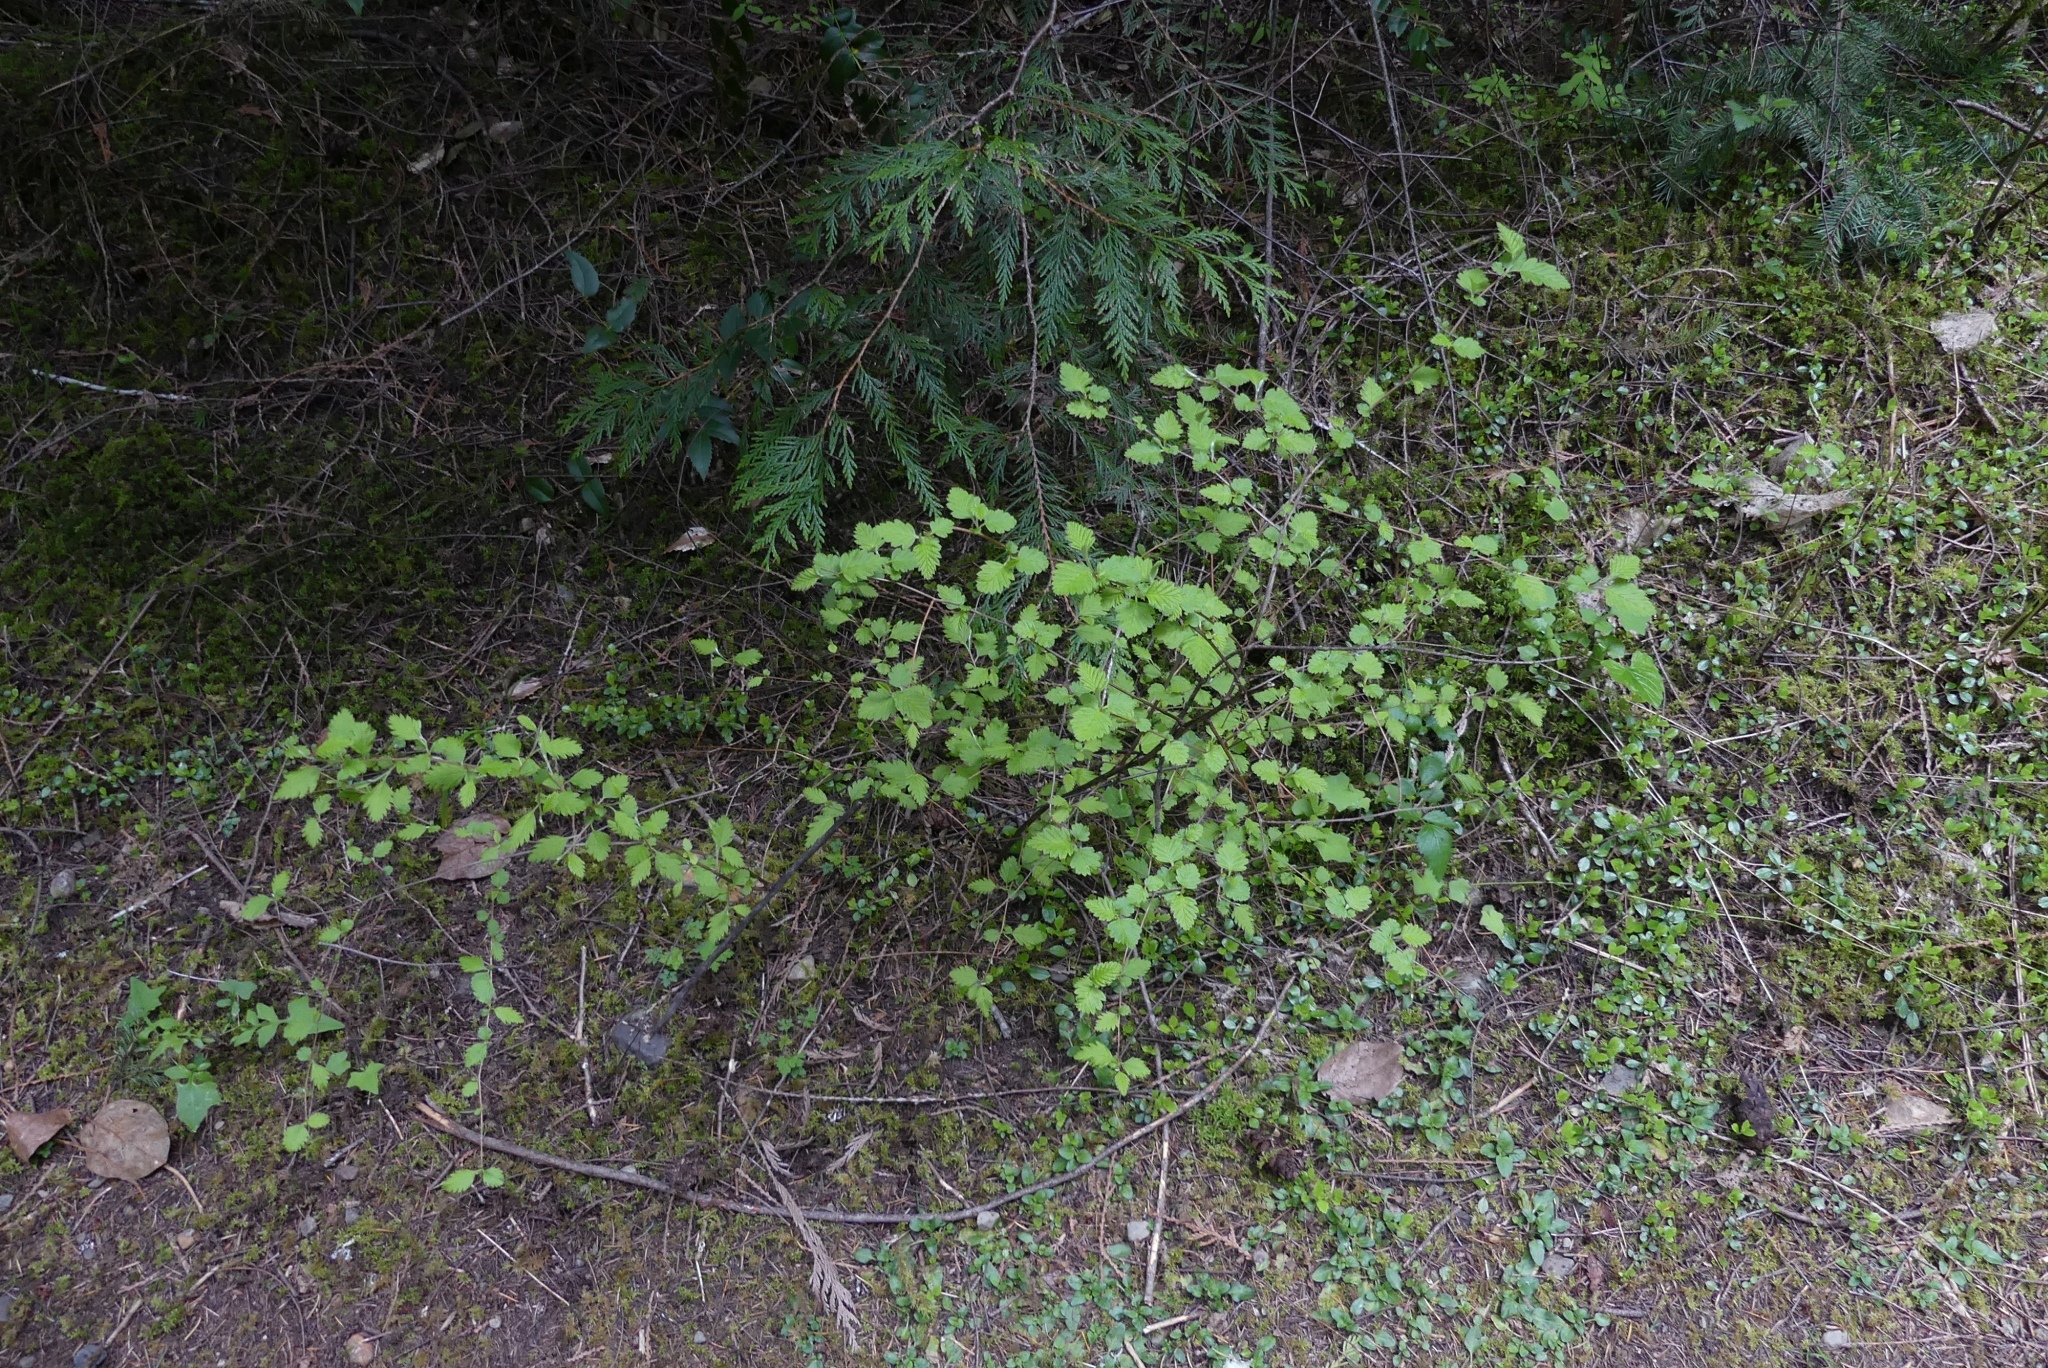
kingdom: Plantae
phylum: Tracheophyta
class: Magnoliopsida
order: Rosales
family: Rosaceae
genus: Holodiscus
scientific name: Holodiscus discolor
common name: Oceanspray
